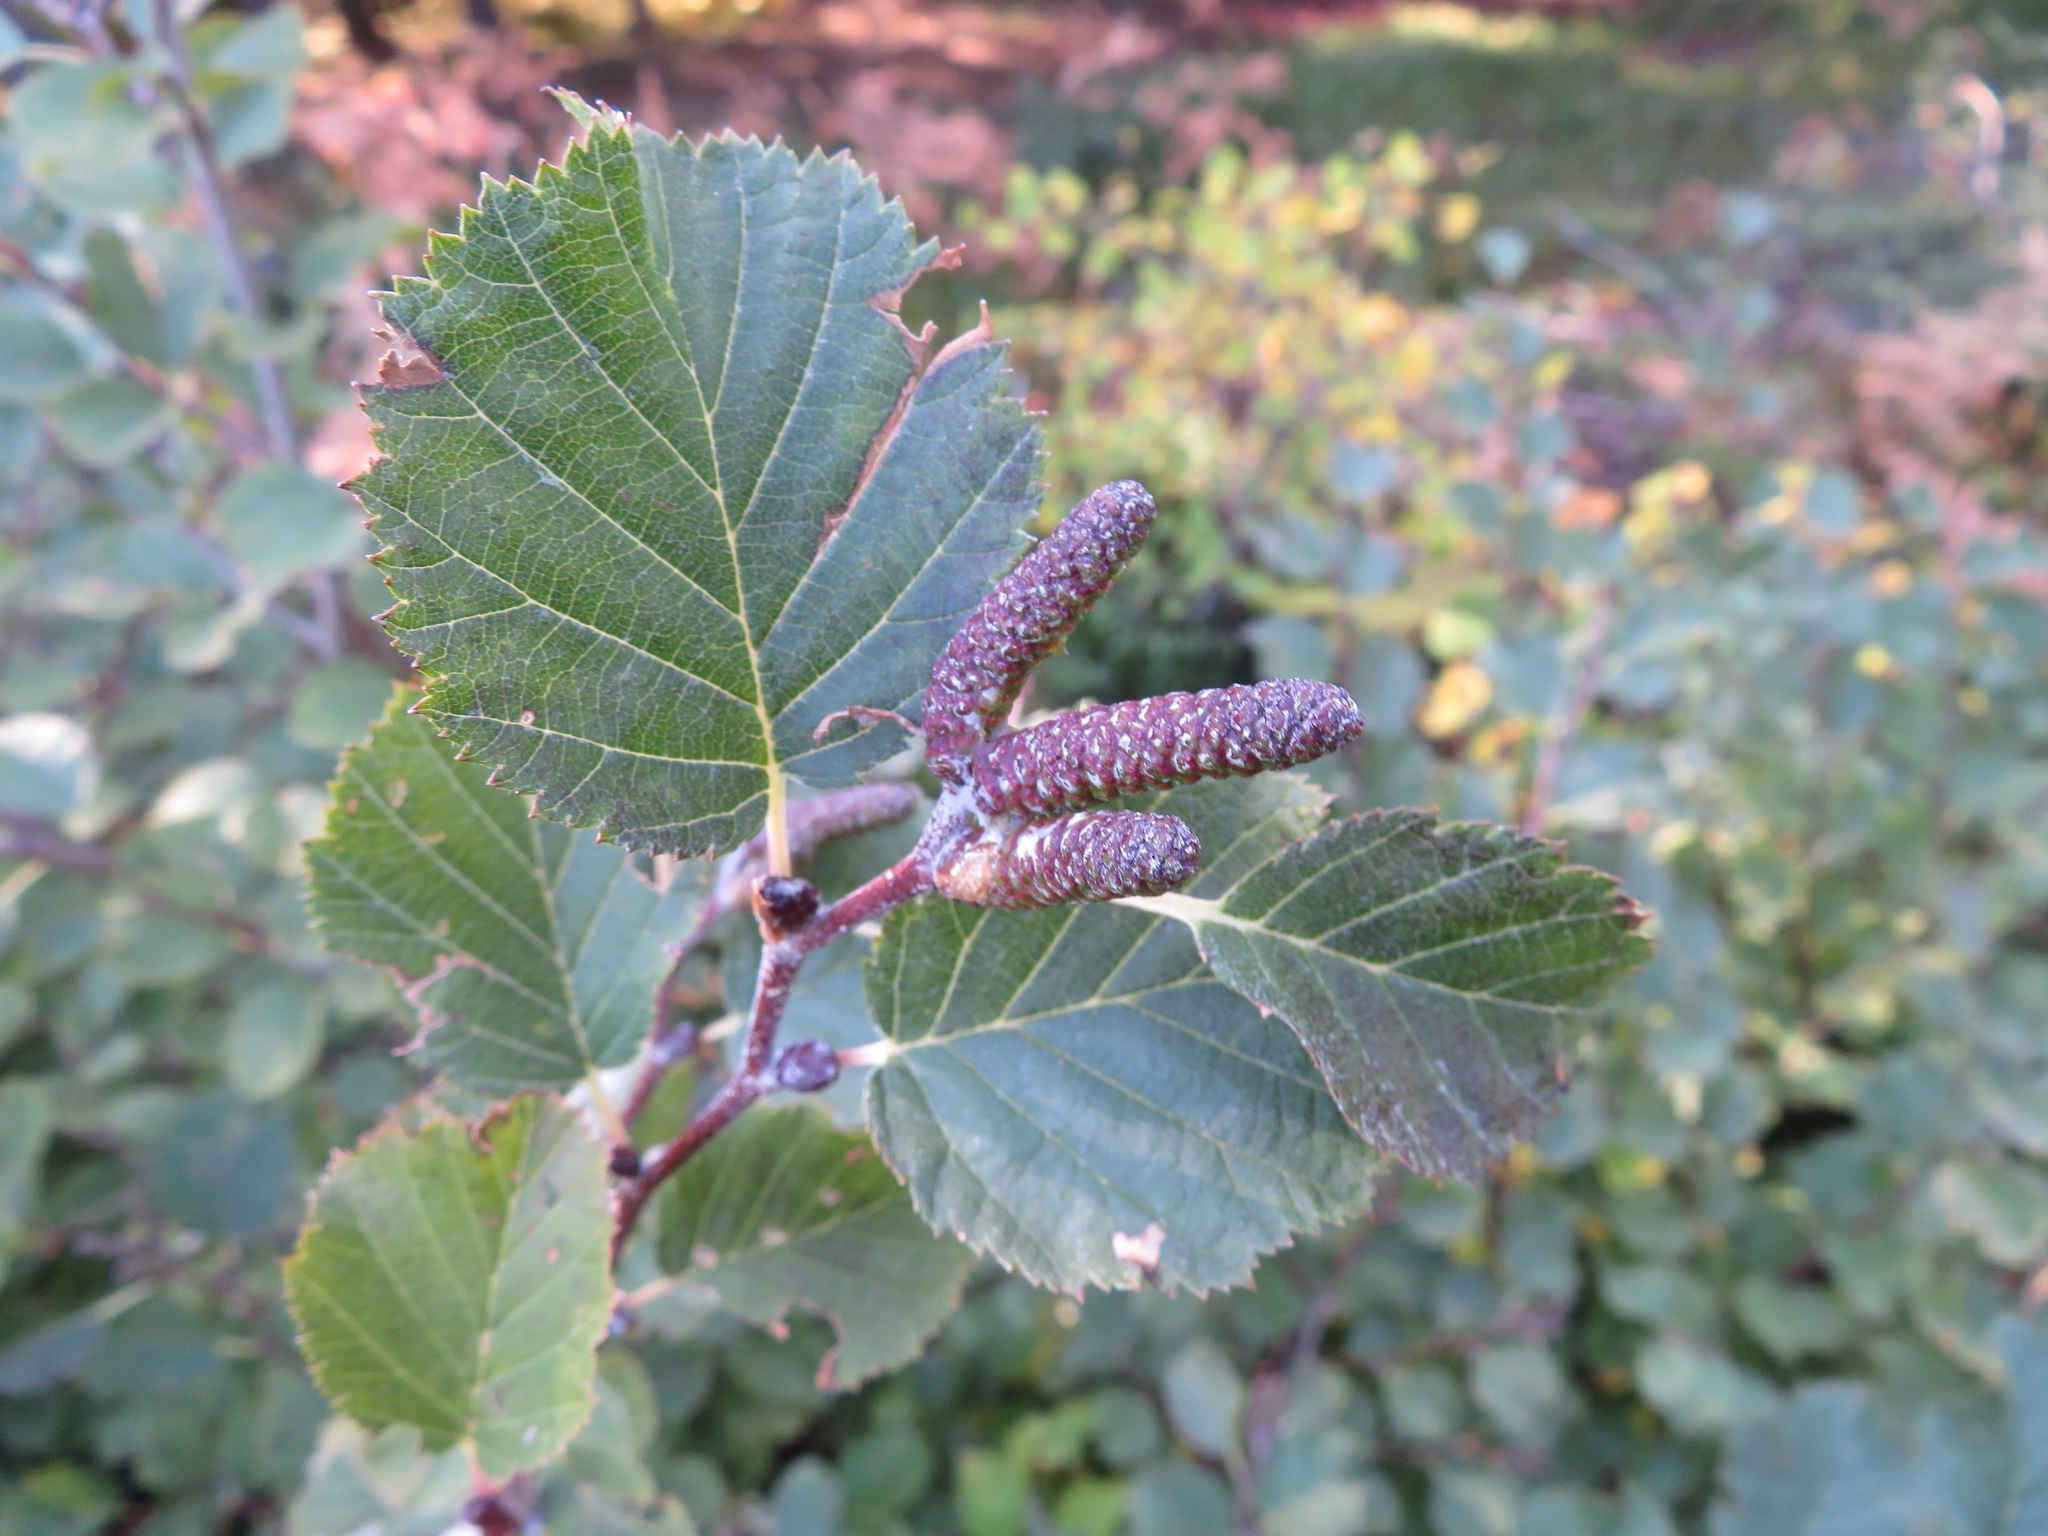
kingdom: Plantae
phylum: Tracheophyta
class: Magnoliopsida
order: Fagales
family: Betulaceae
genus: Alnus
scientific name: Alnus alnobetula
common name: Green alder
